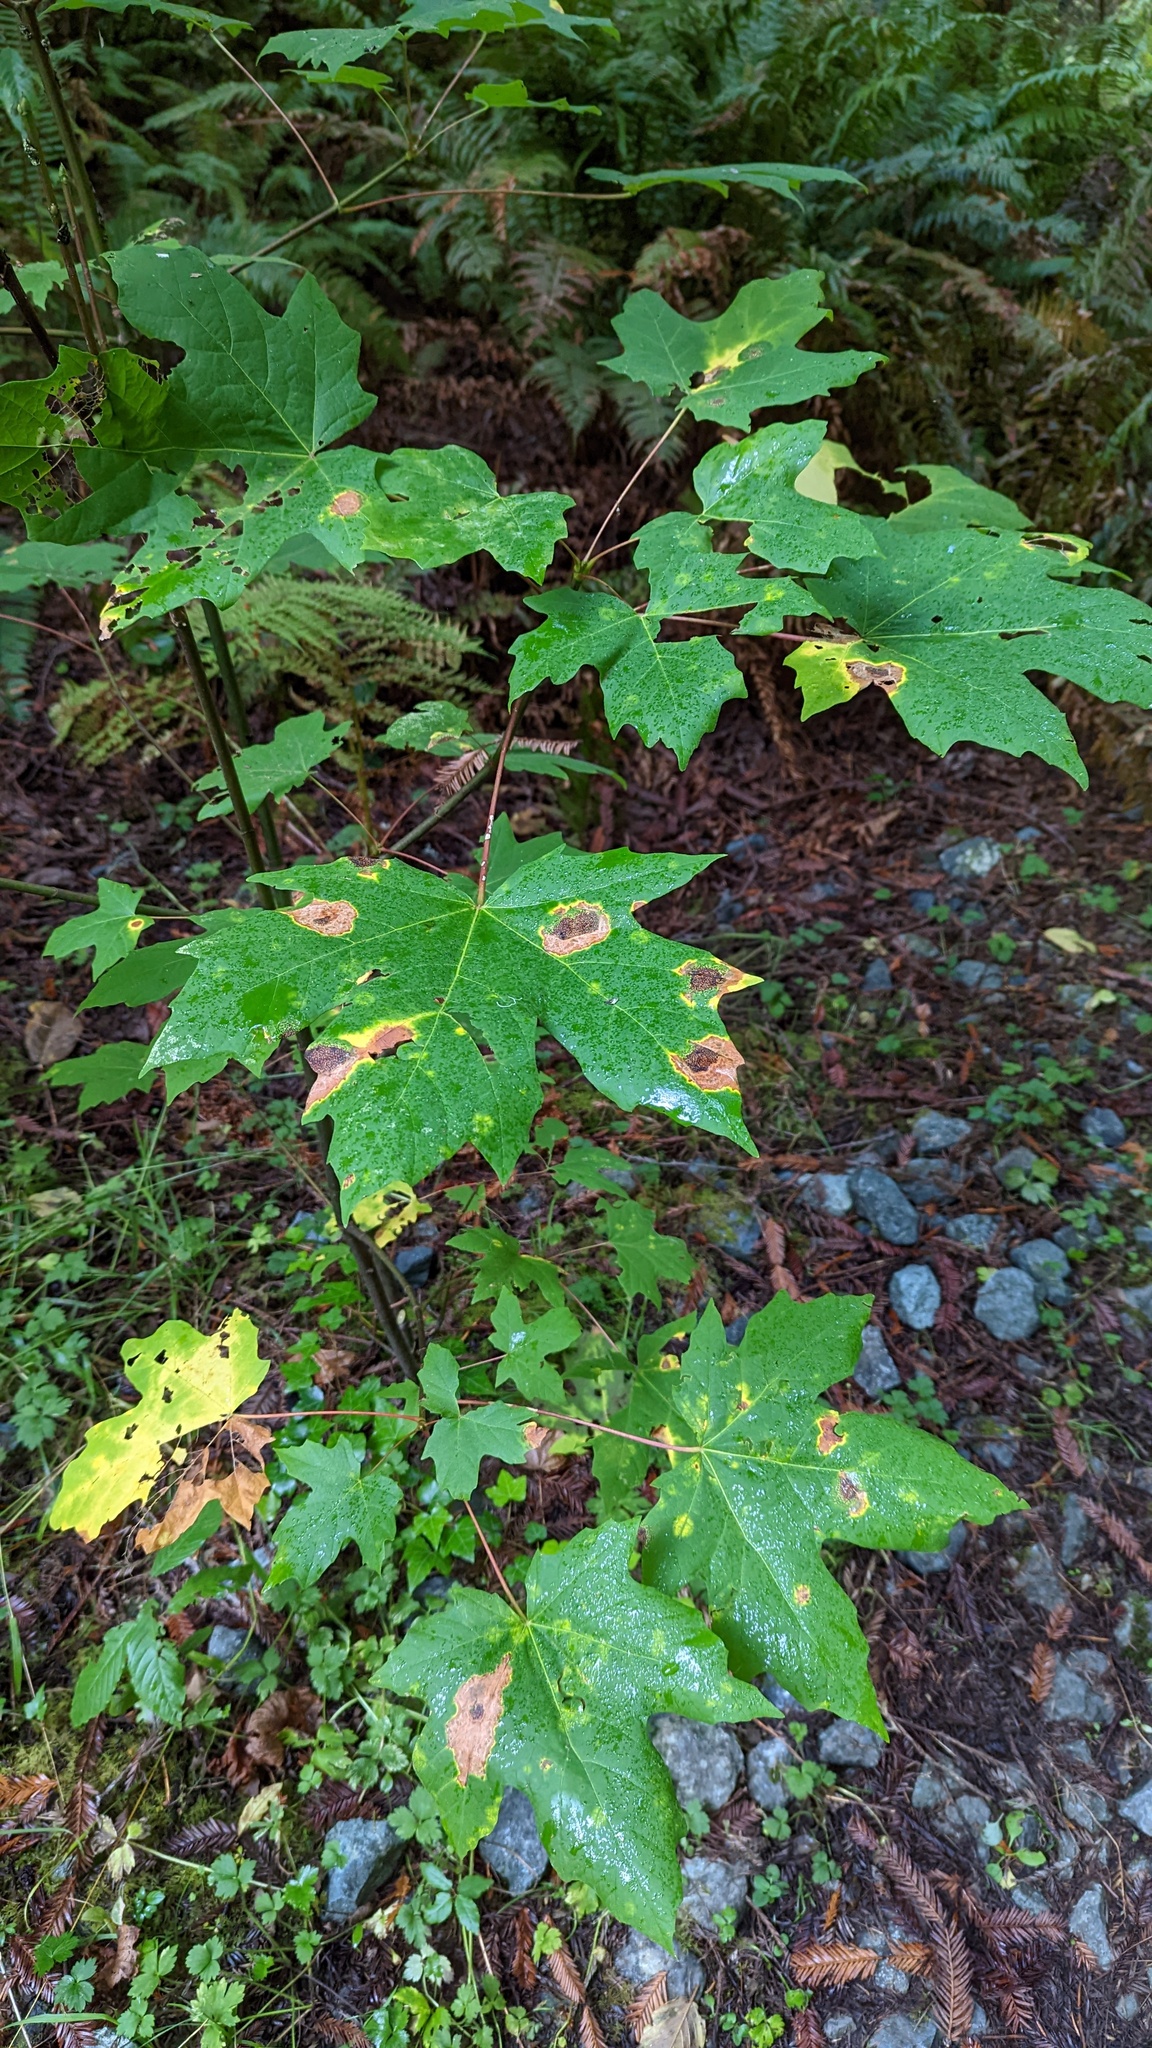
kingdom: Fungi
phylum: Ascomycota
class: Leotiomycetes
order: Rhytismatales
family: Rhytismataceae
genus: Rhytisma
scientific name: Rhytisma punctatum
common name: Speckled tar spot
